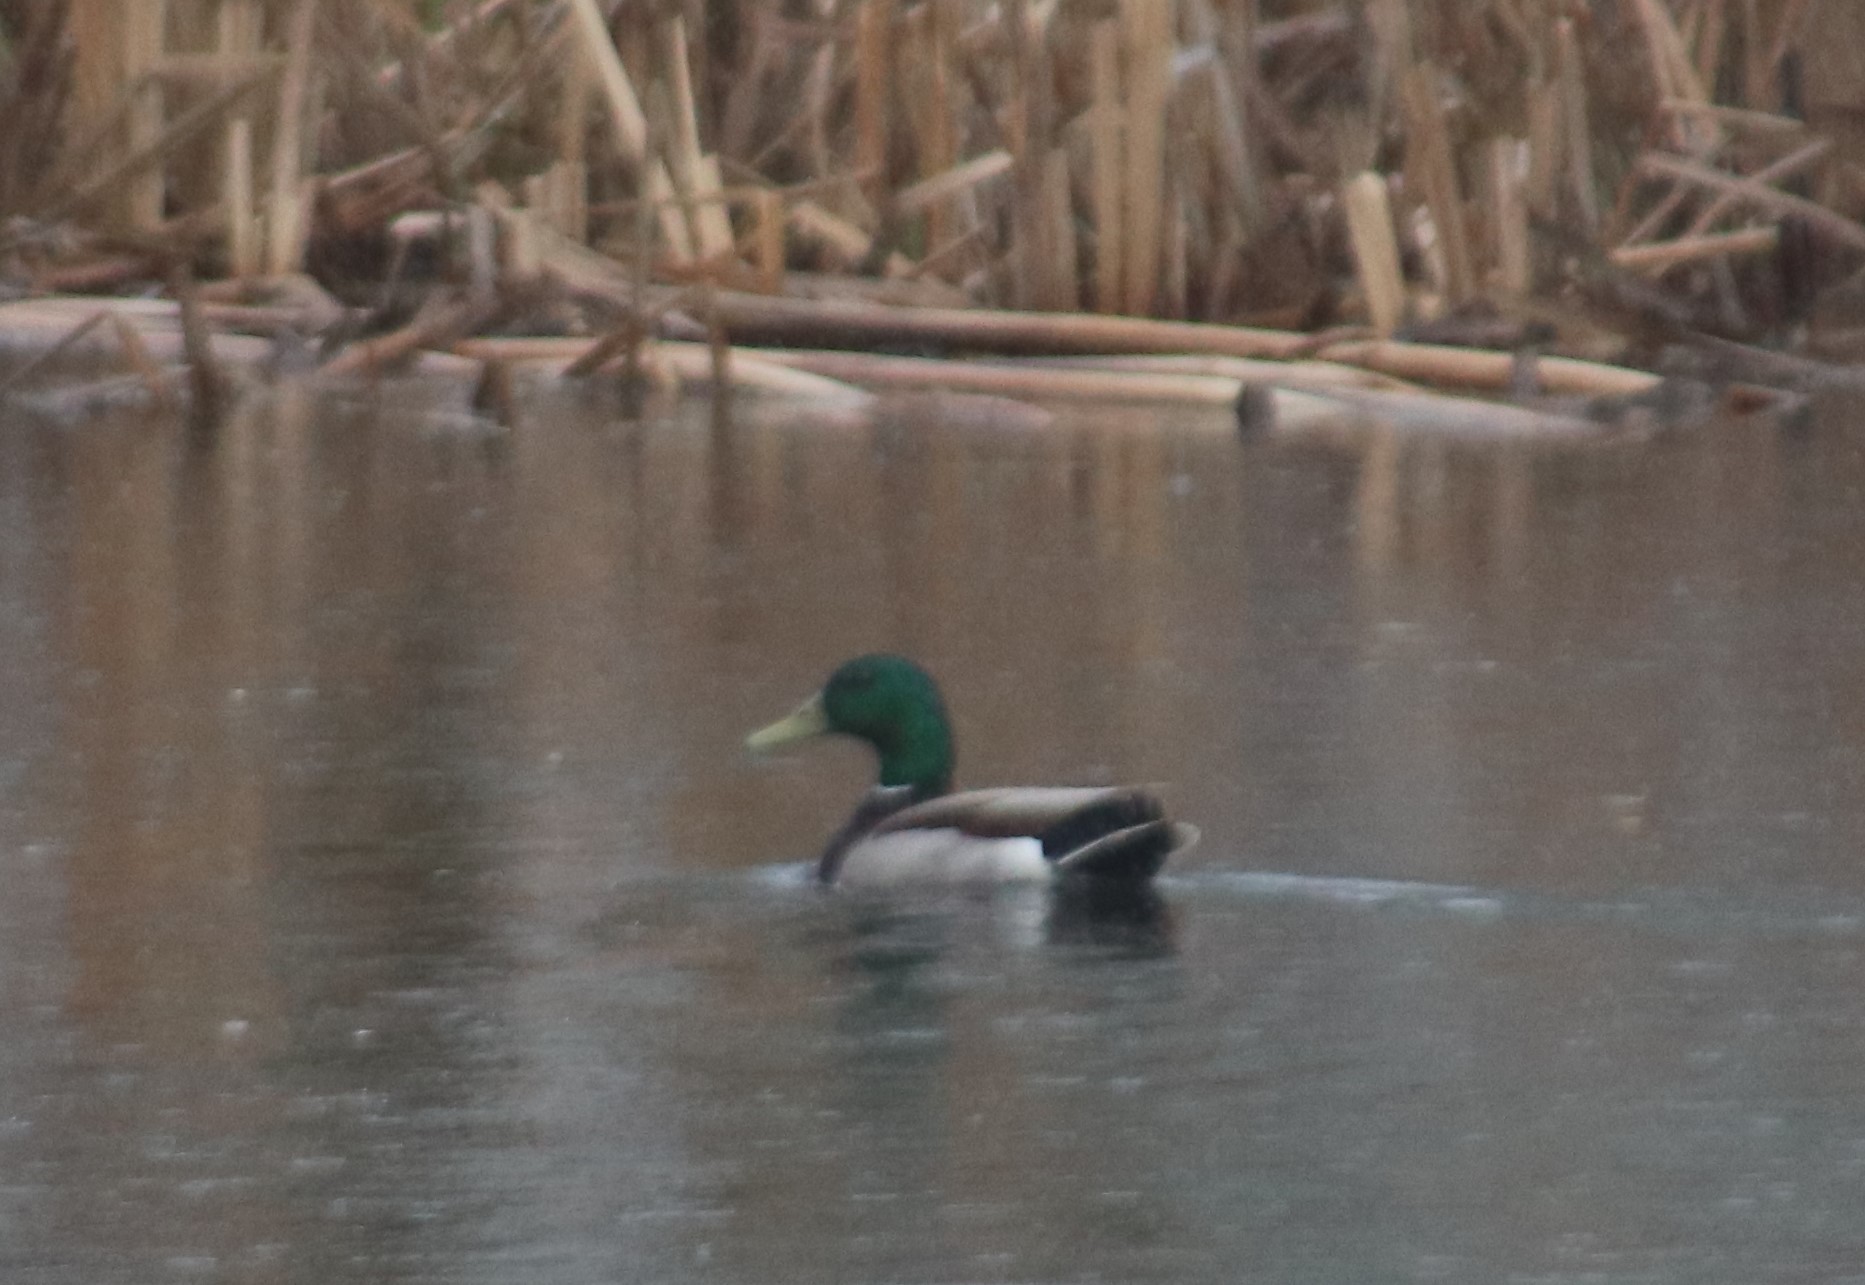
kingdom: Animalia
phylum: Chordata
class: Aves
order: Anseriformes
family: Anatidae
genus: Anas
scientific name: Anas platyrhynchos
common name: Mallard
